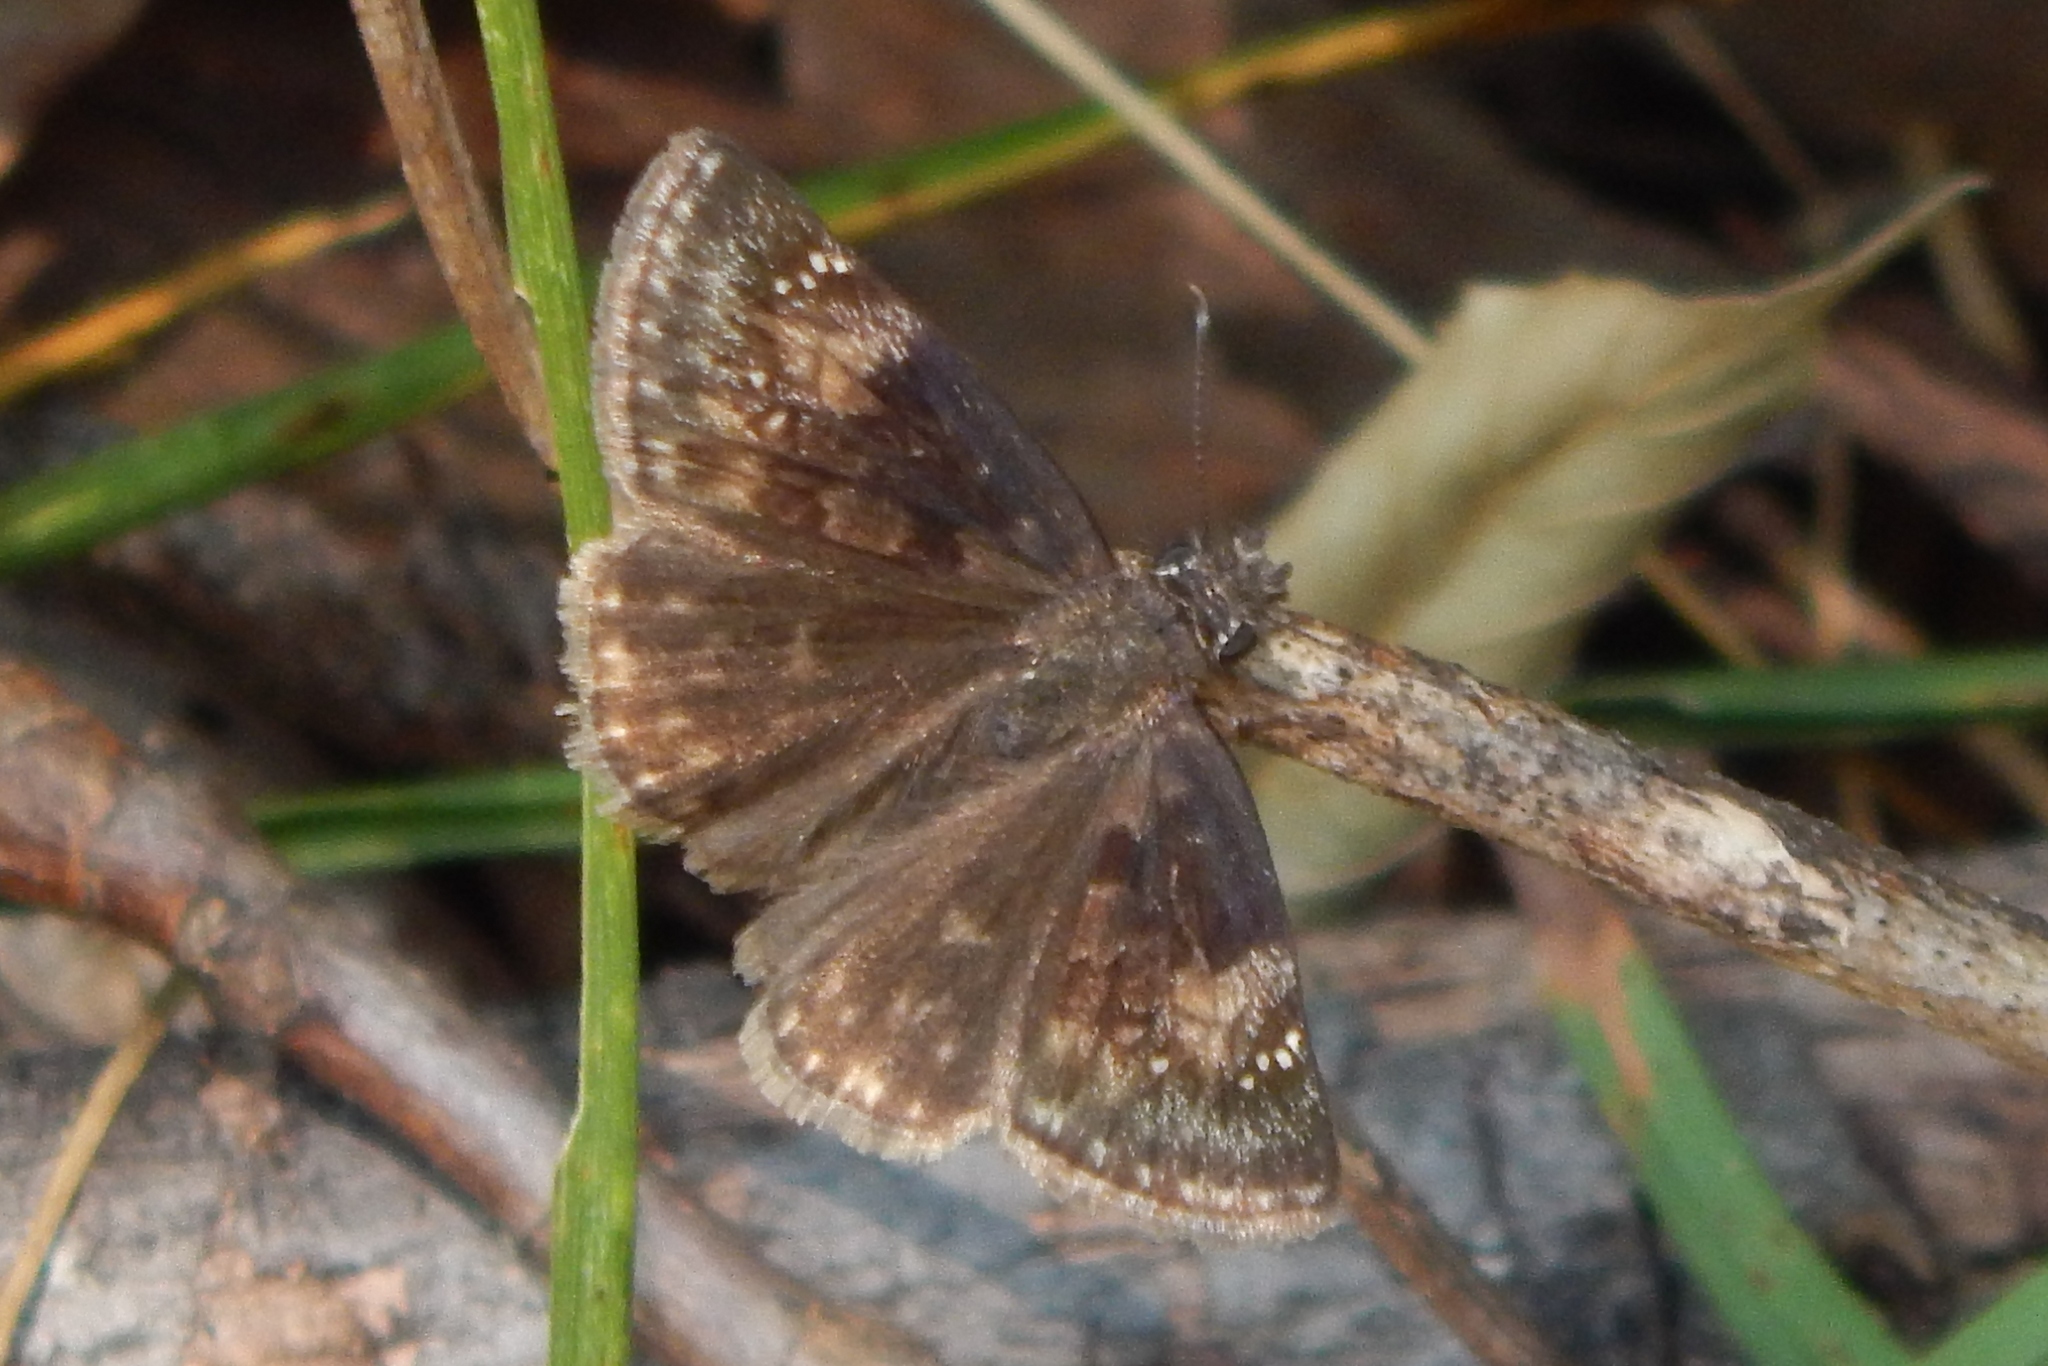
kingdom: Animalia
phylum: Arthropoda
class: Insecta
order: Lepidoptera
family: Hesperiidae
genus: Erynnis
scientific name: Erynnis baptisiae
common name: Wild indigo duskywing
